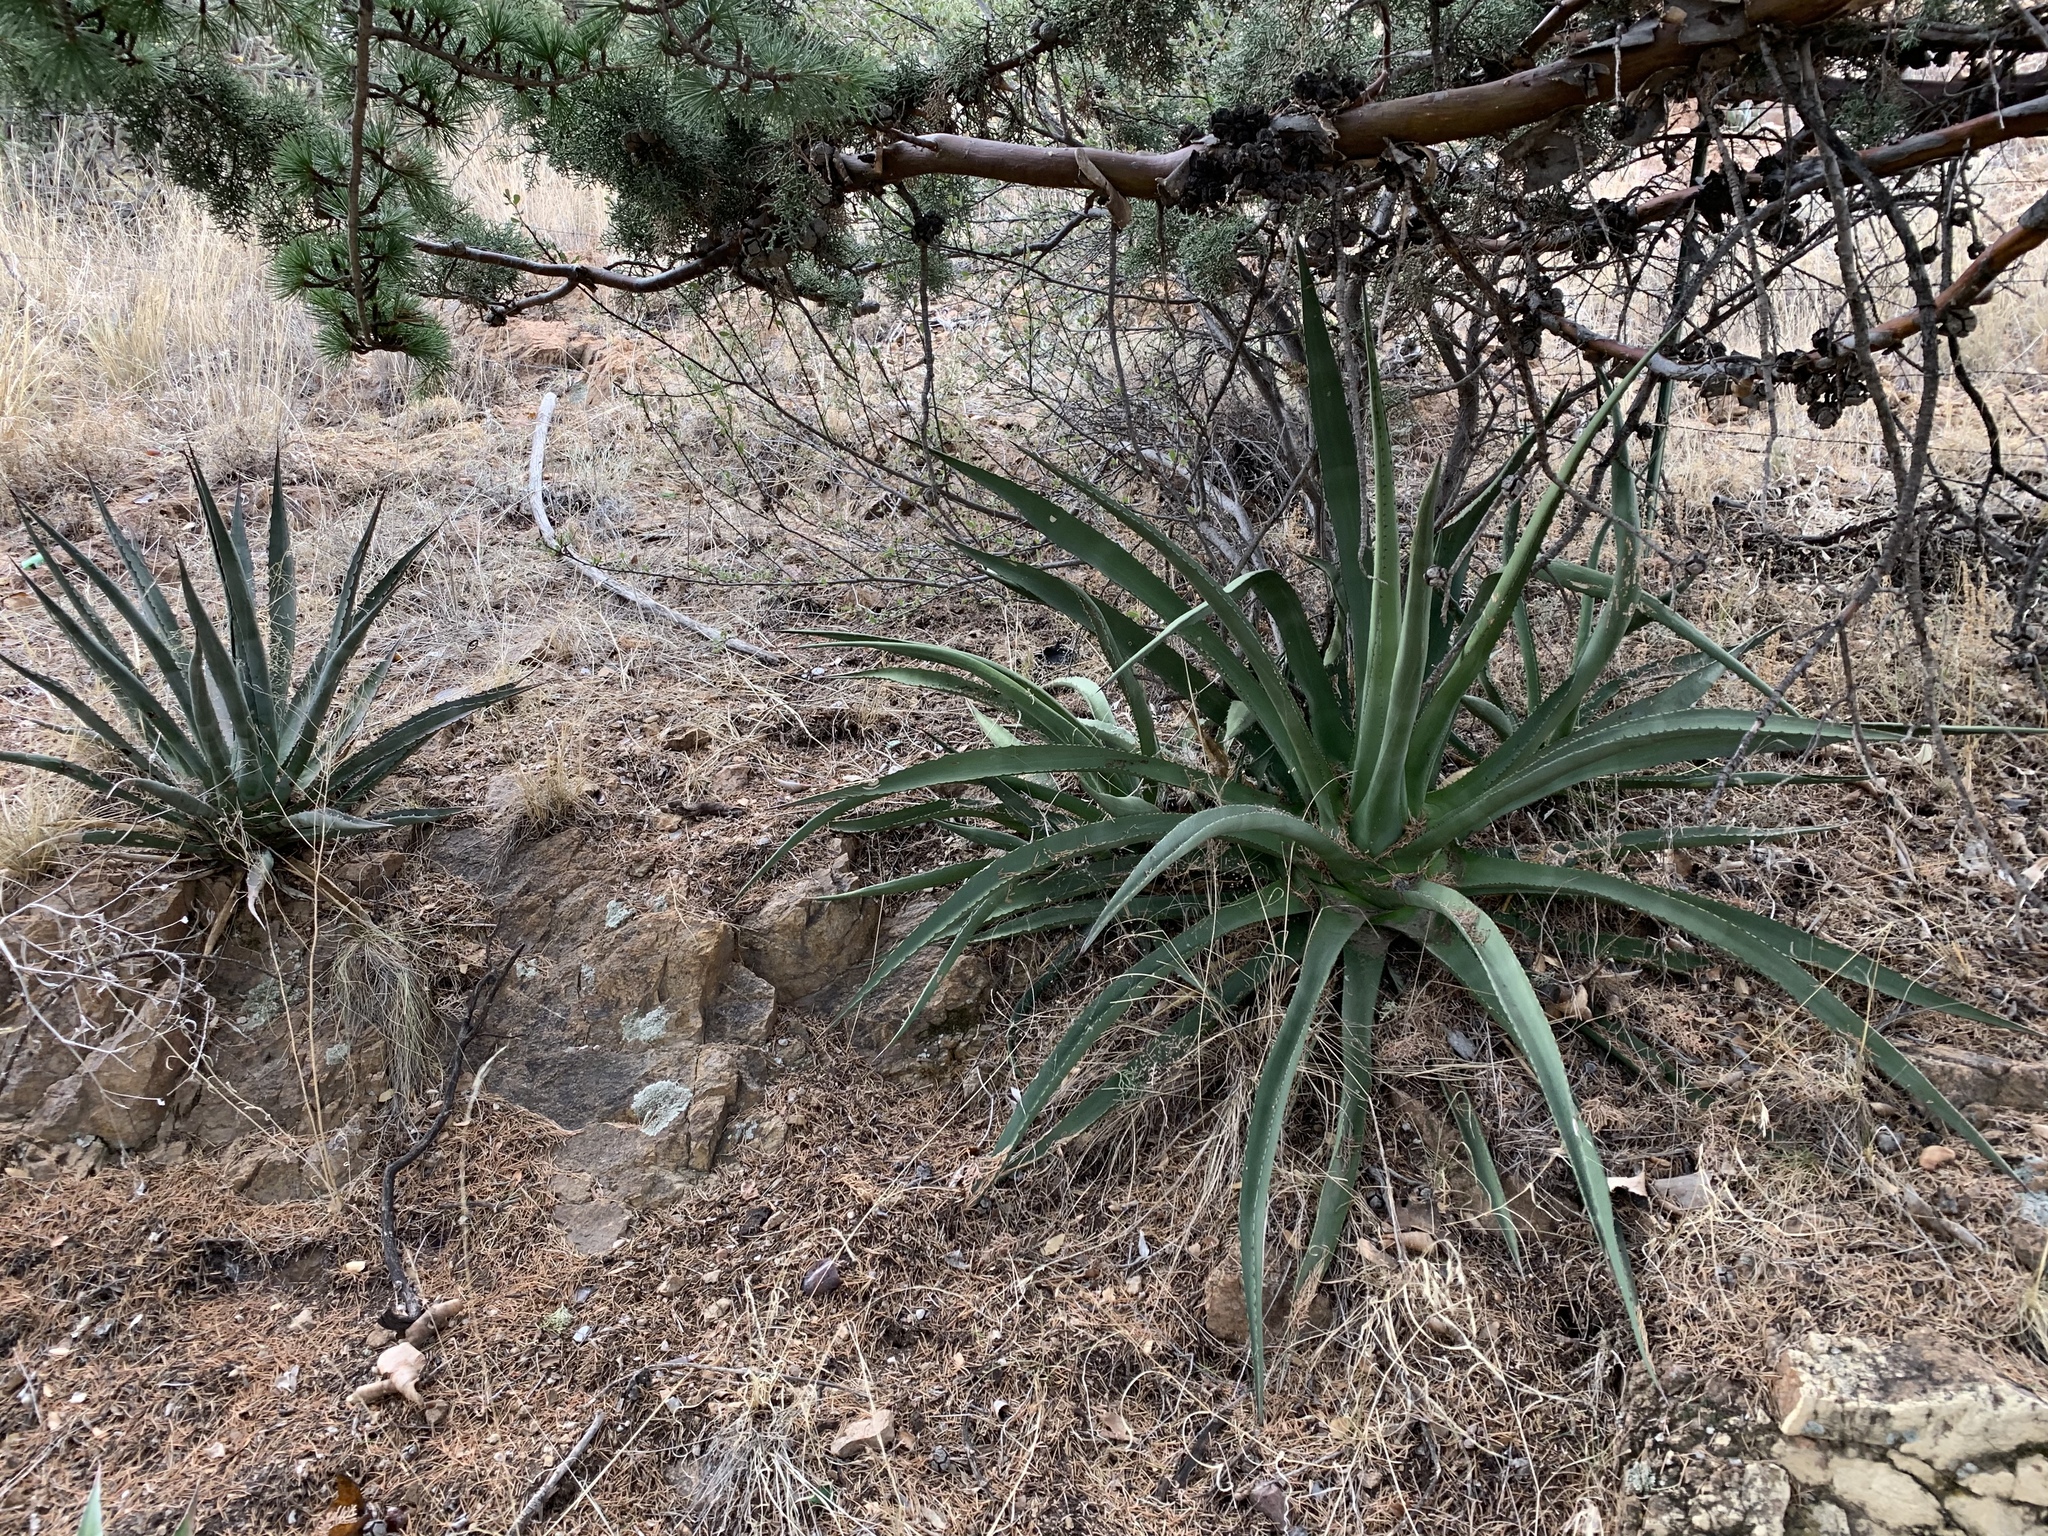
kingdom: Plantae
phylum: Tracheophyta
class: Liliopsida
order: Asparagales
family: Asparagaceae
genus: Agave
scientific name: Agave palmeri
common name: Palmer agave
